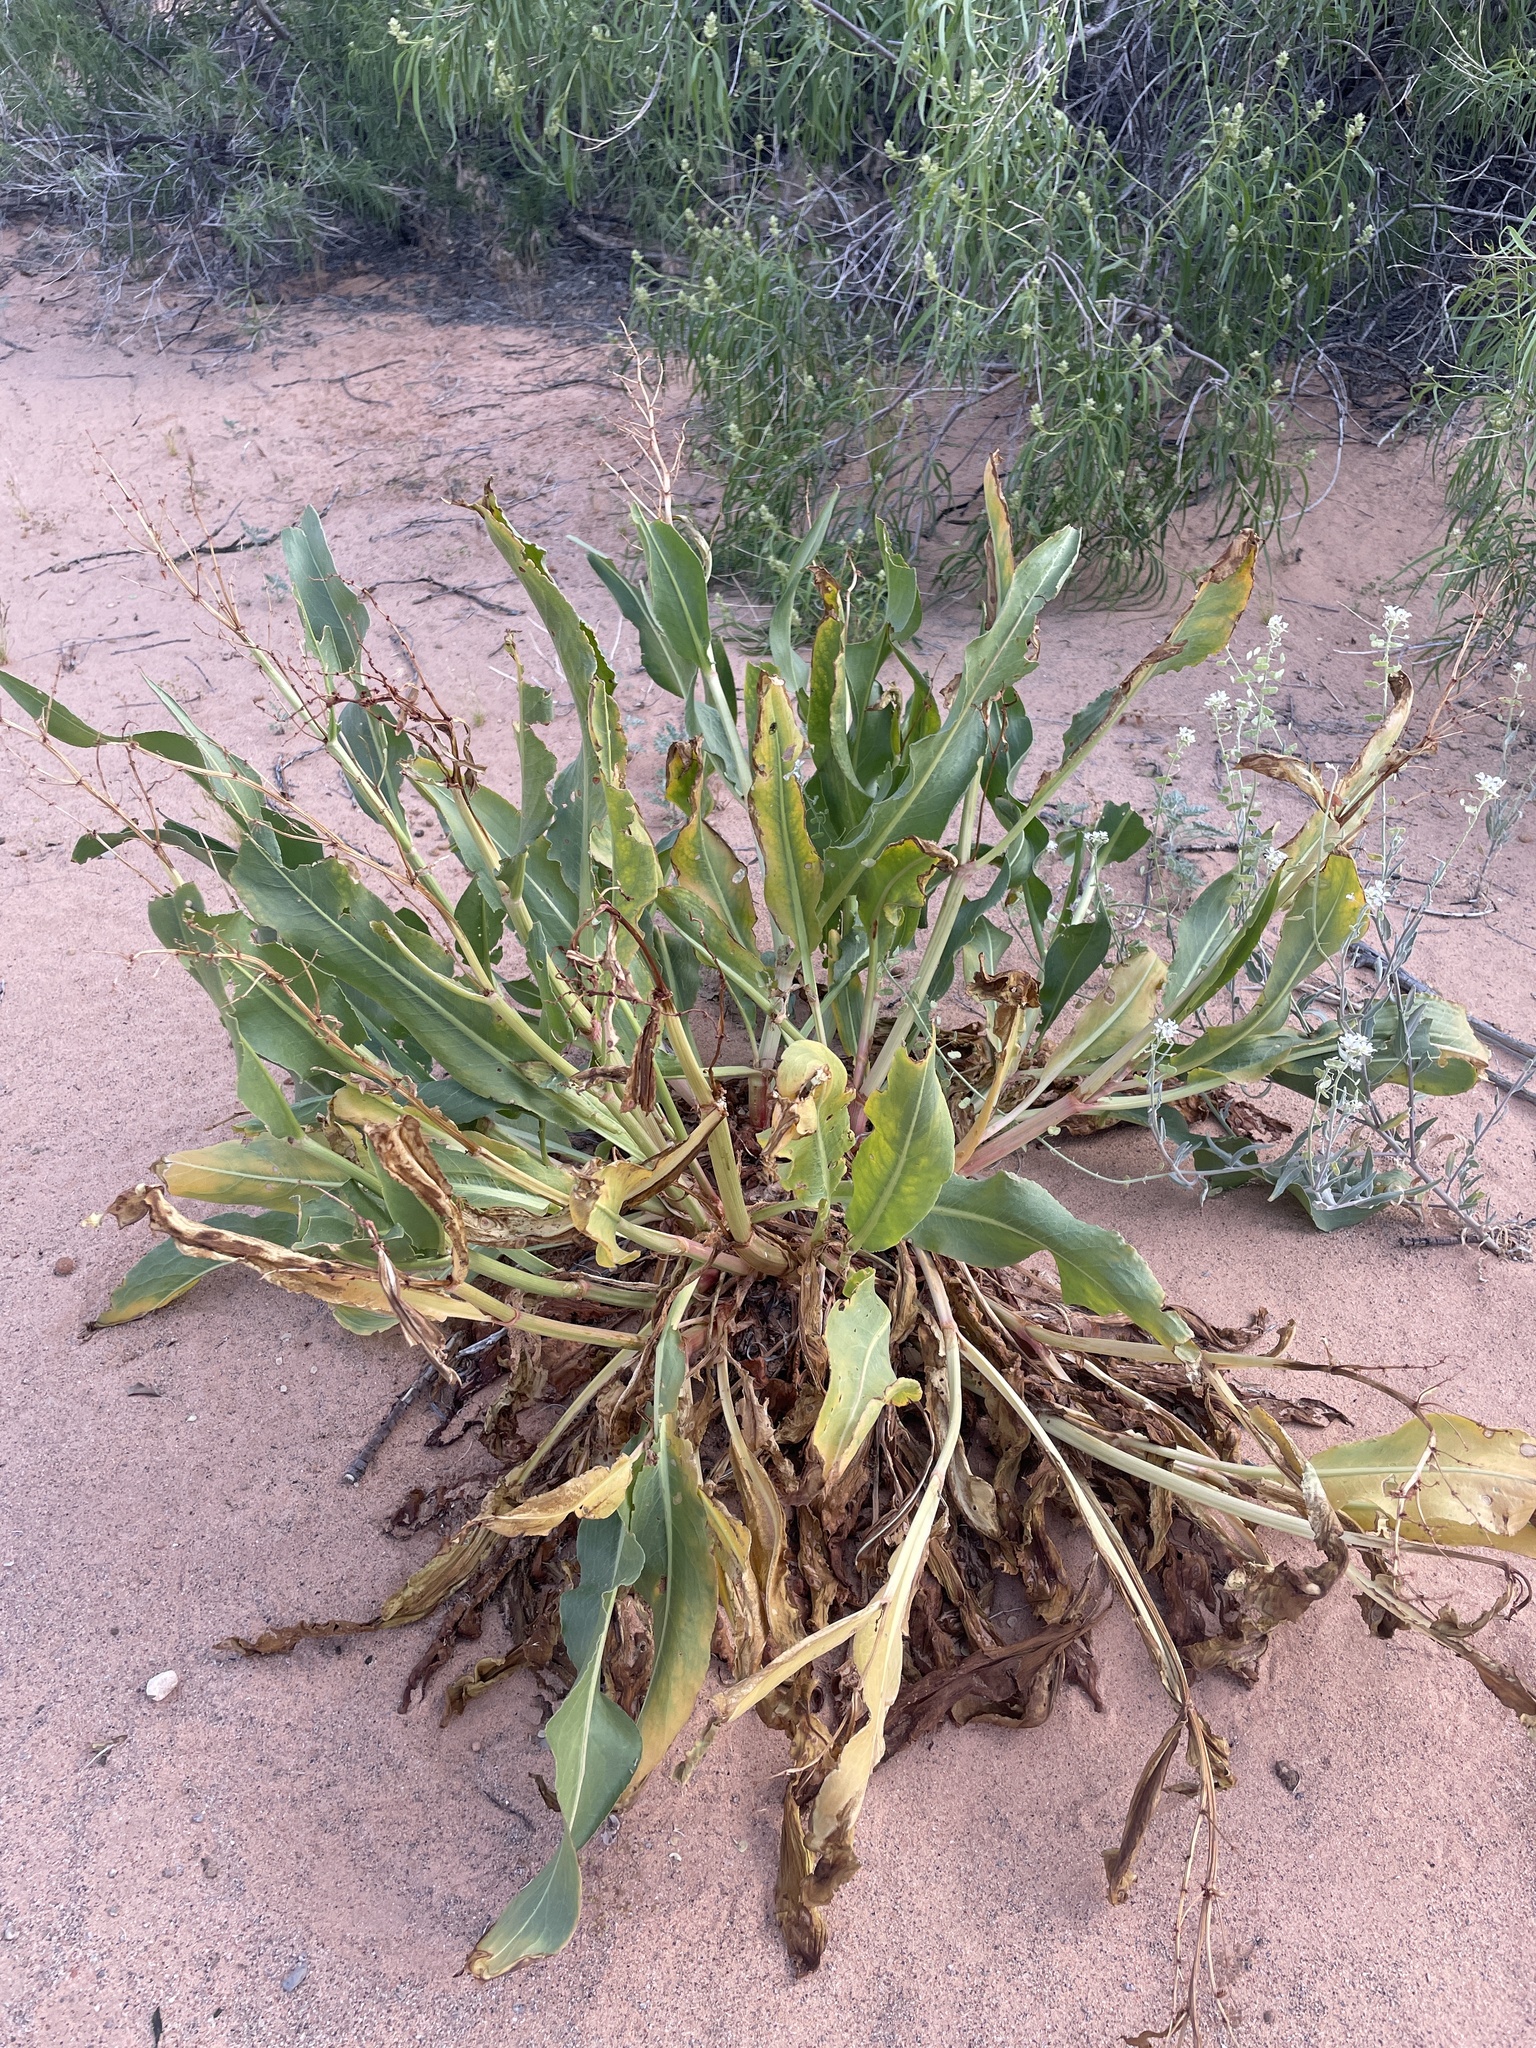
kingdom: Plantae
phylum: Tracheophyta
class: Magnoliopsida
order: Caryophyllales
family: Polygonaceae
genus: Rumex
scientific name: Rumex hymenosepalus
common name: Ganagra
